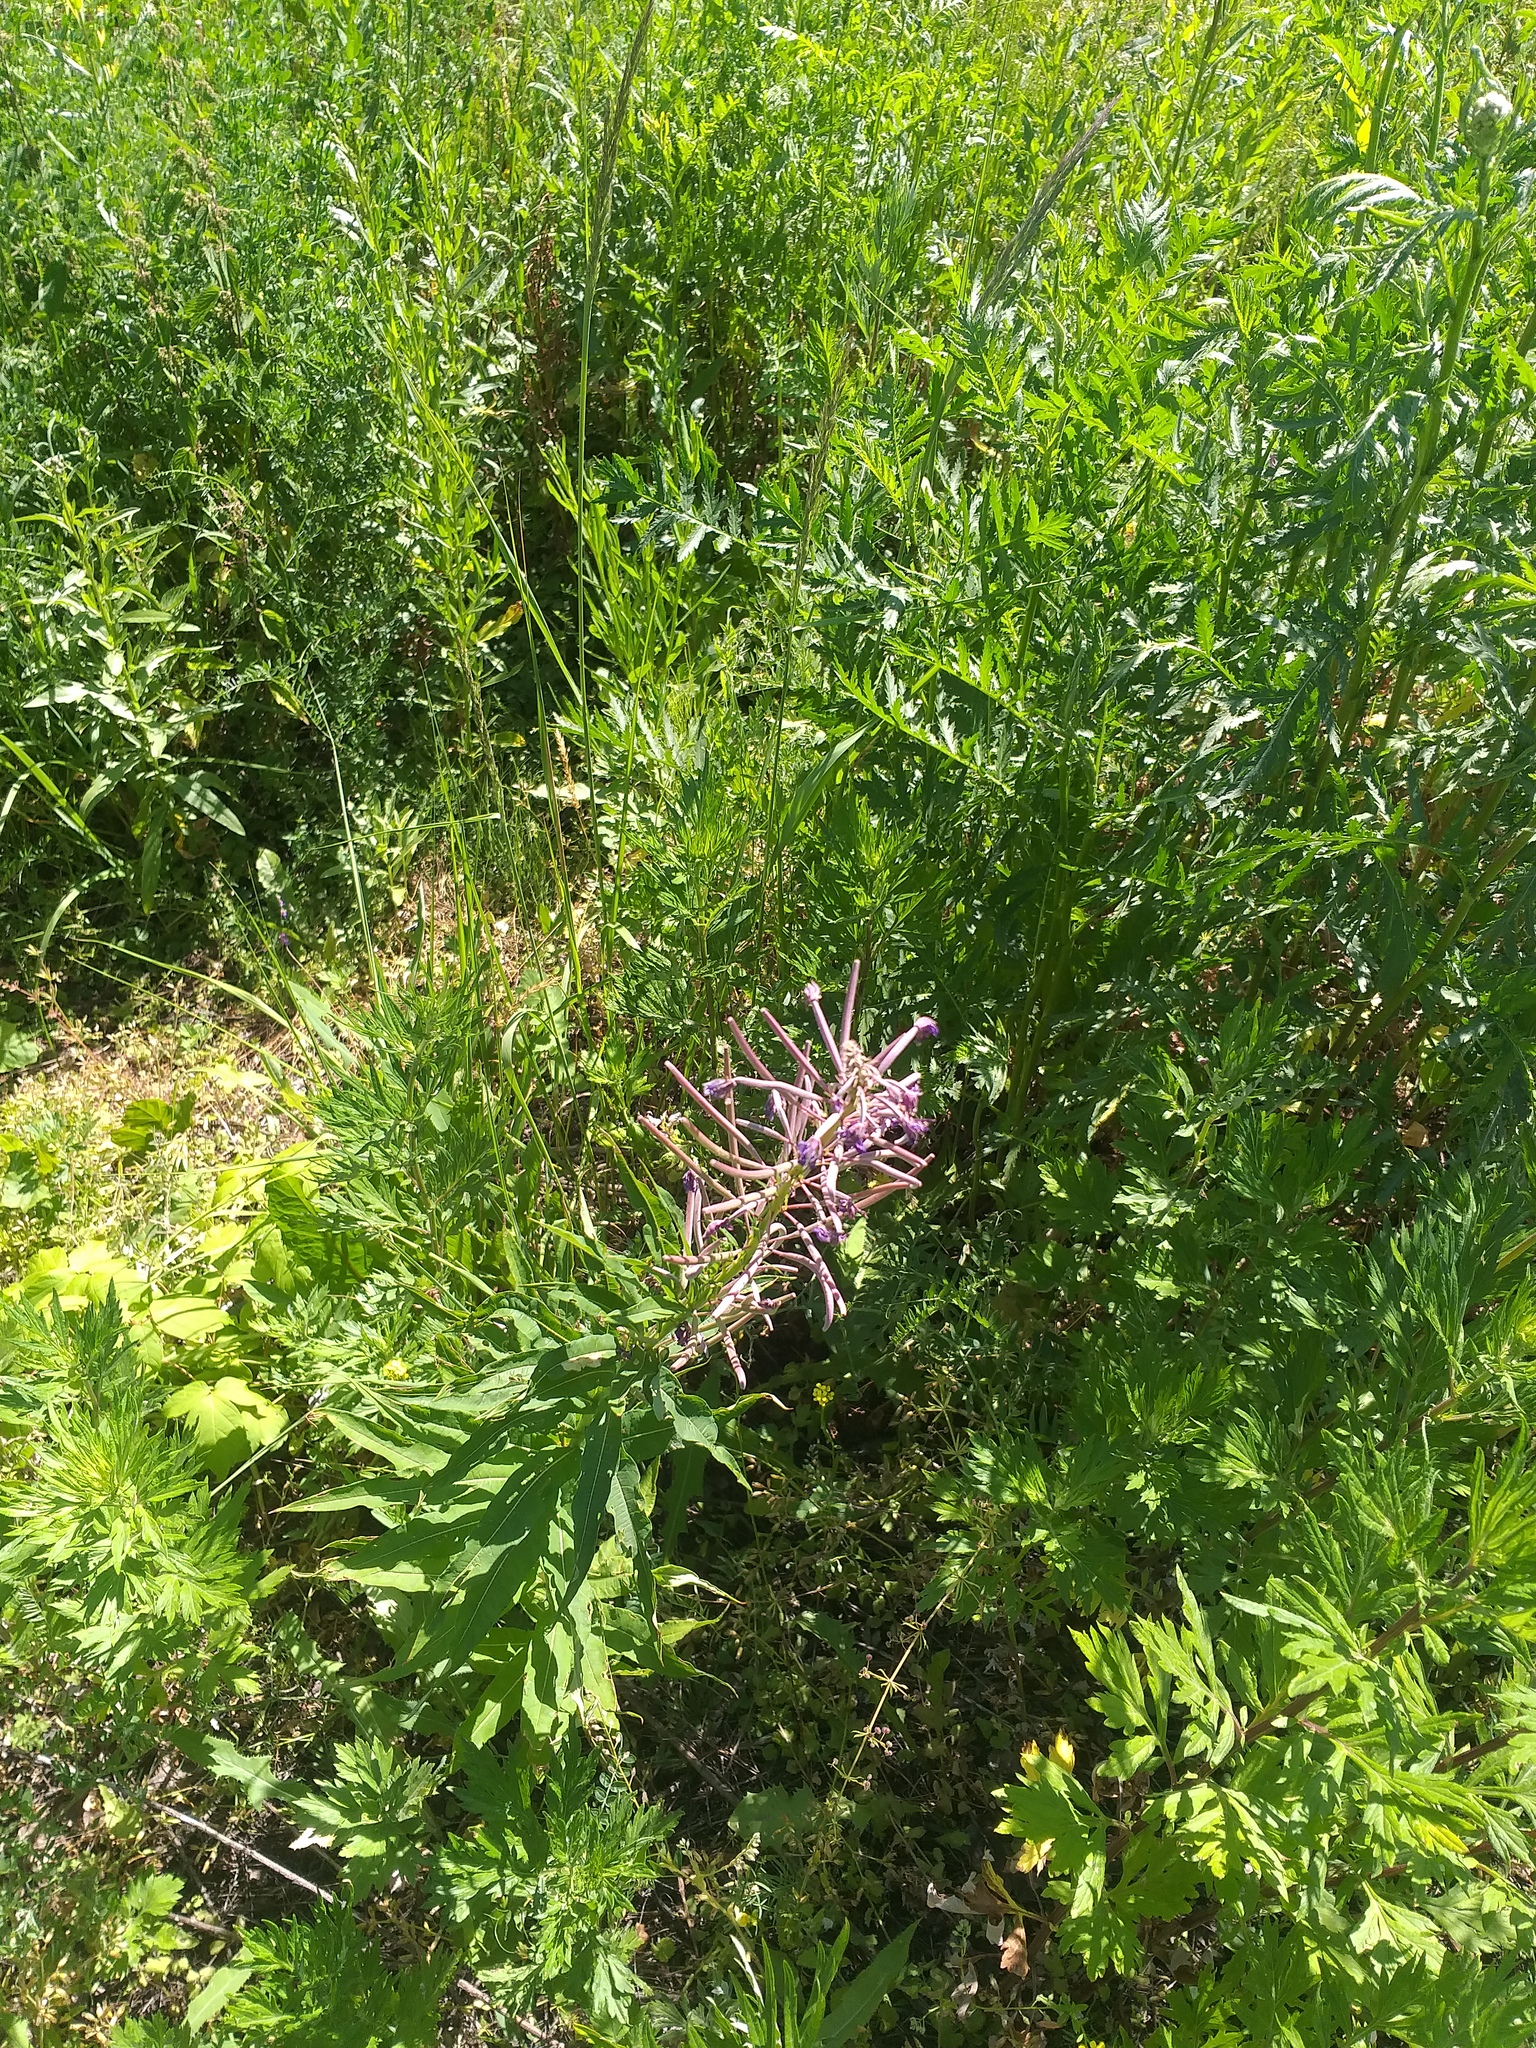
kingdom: Plantae
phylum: Tracheophyta
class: Magnoliopsida
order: Myrtales
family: Onagraceae
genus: Chamaenerion
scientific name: Chamaenerion angustifolium
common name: Fireweed
